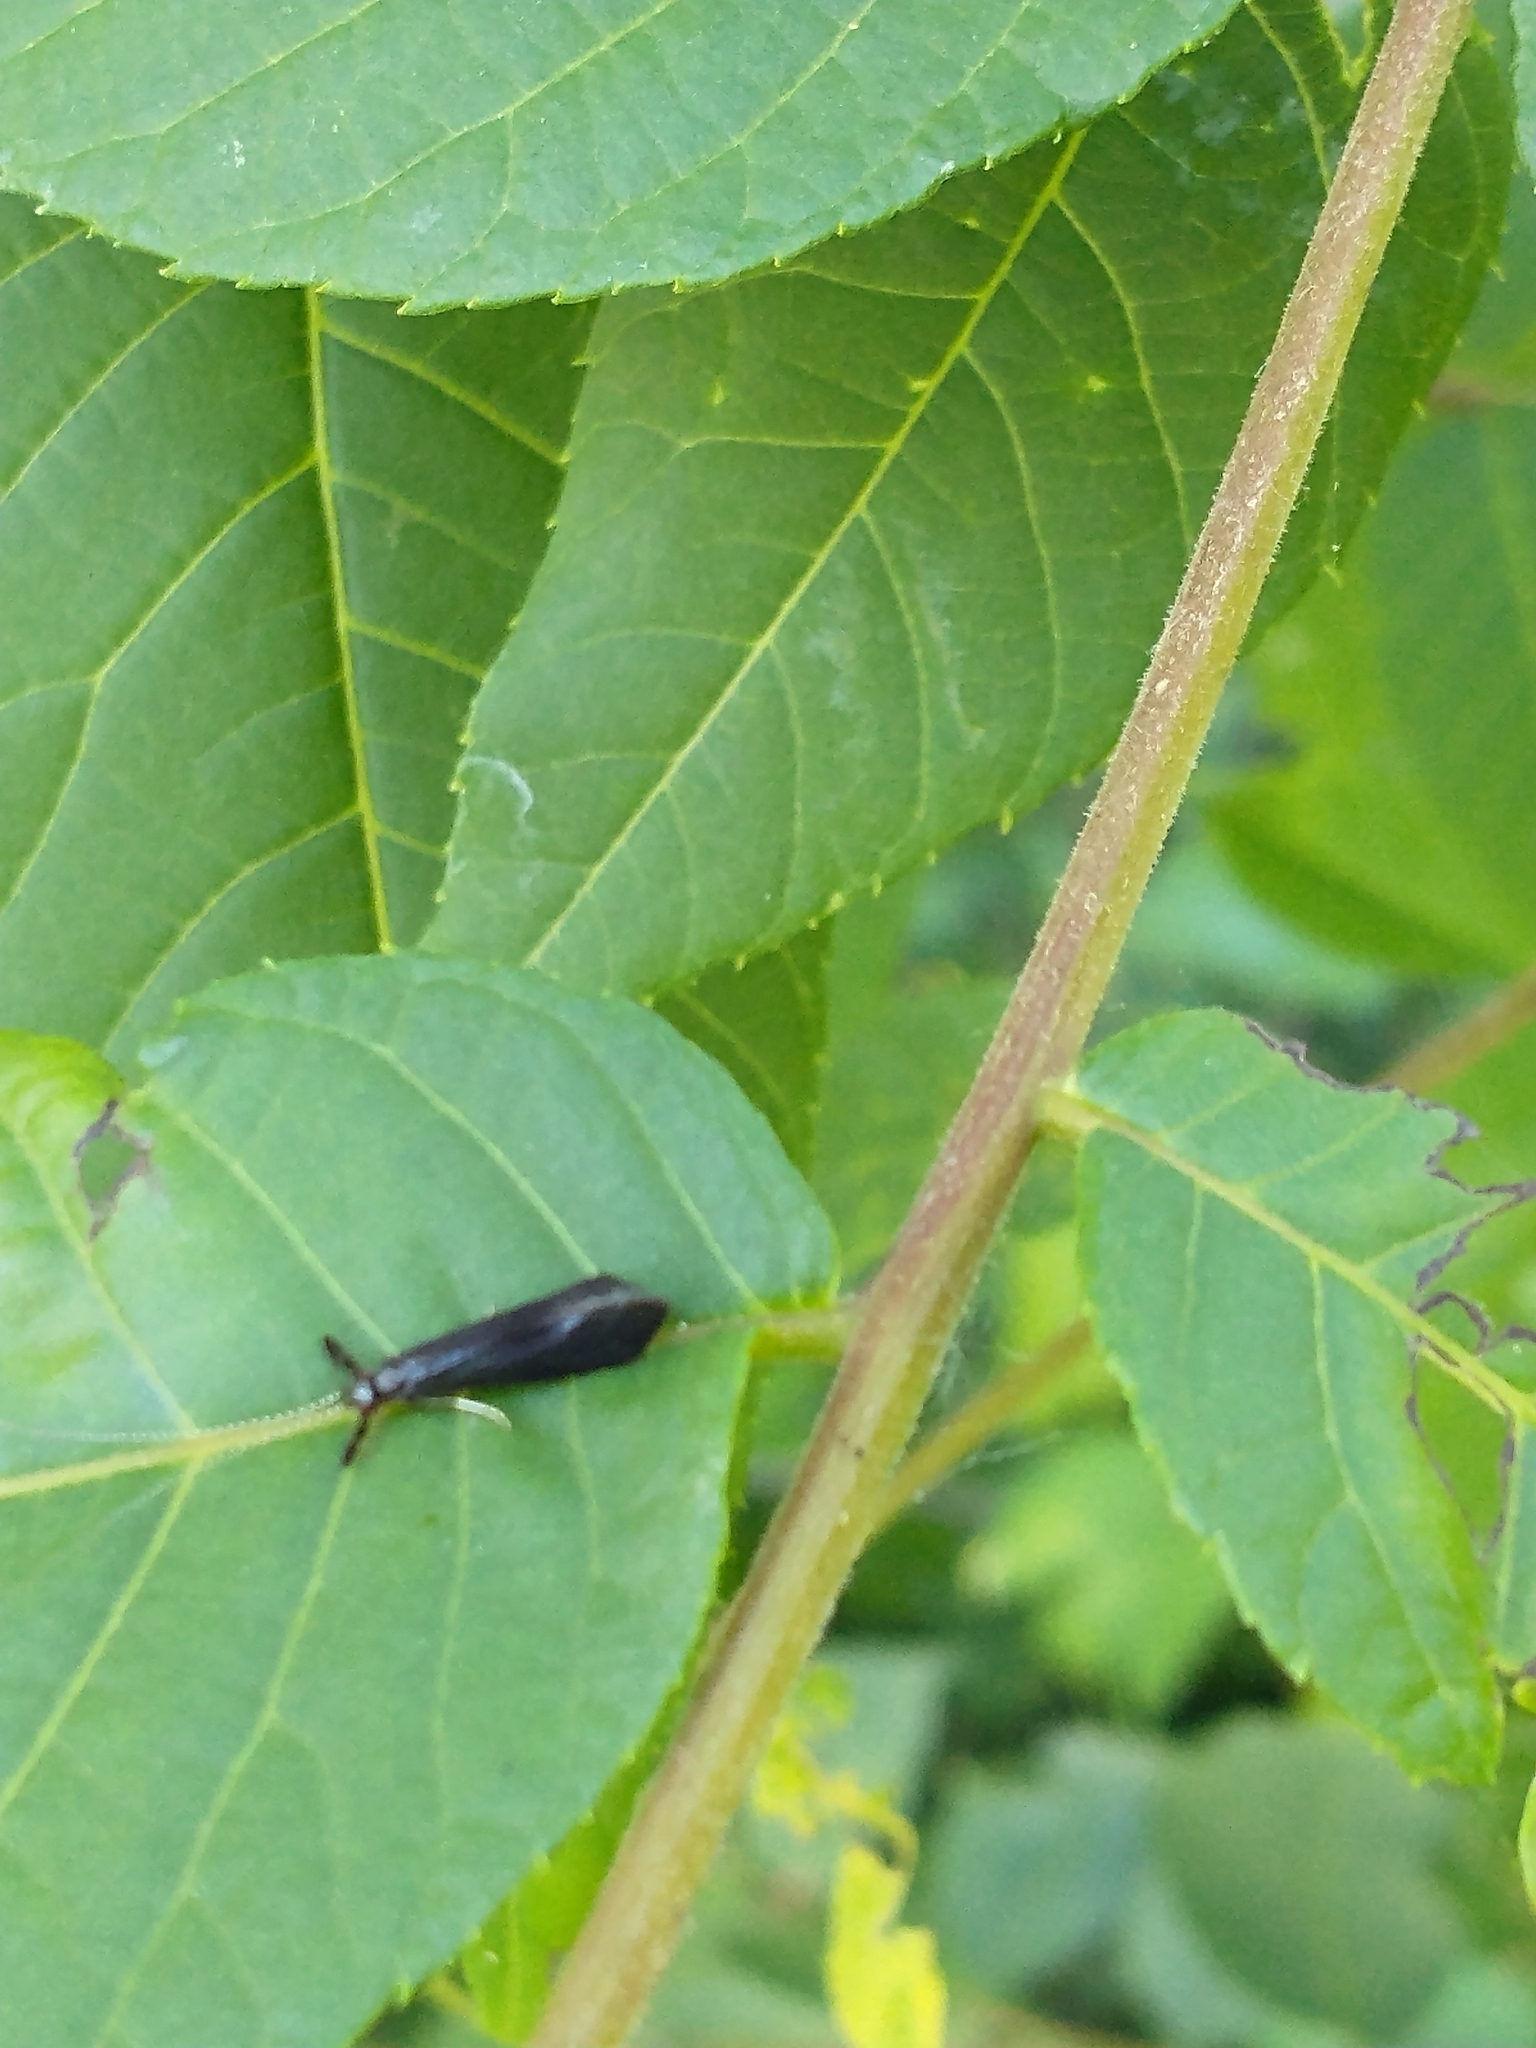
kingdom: Animalia
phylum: Arthropoda
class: Insecta
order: Trichoptera
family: Leptoceridae
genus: Mystacides
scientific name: Mystacides sepulchralis
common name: Black dancer caddisfly
